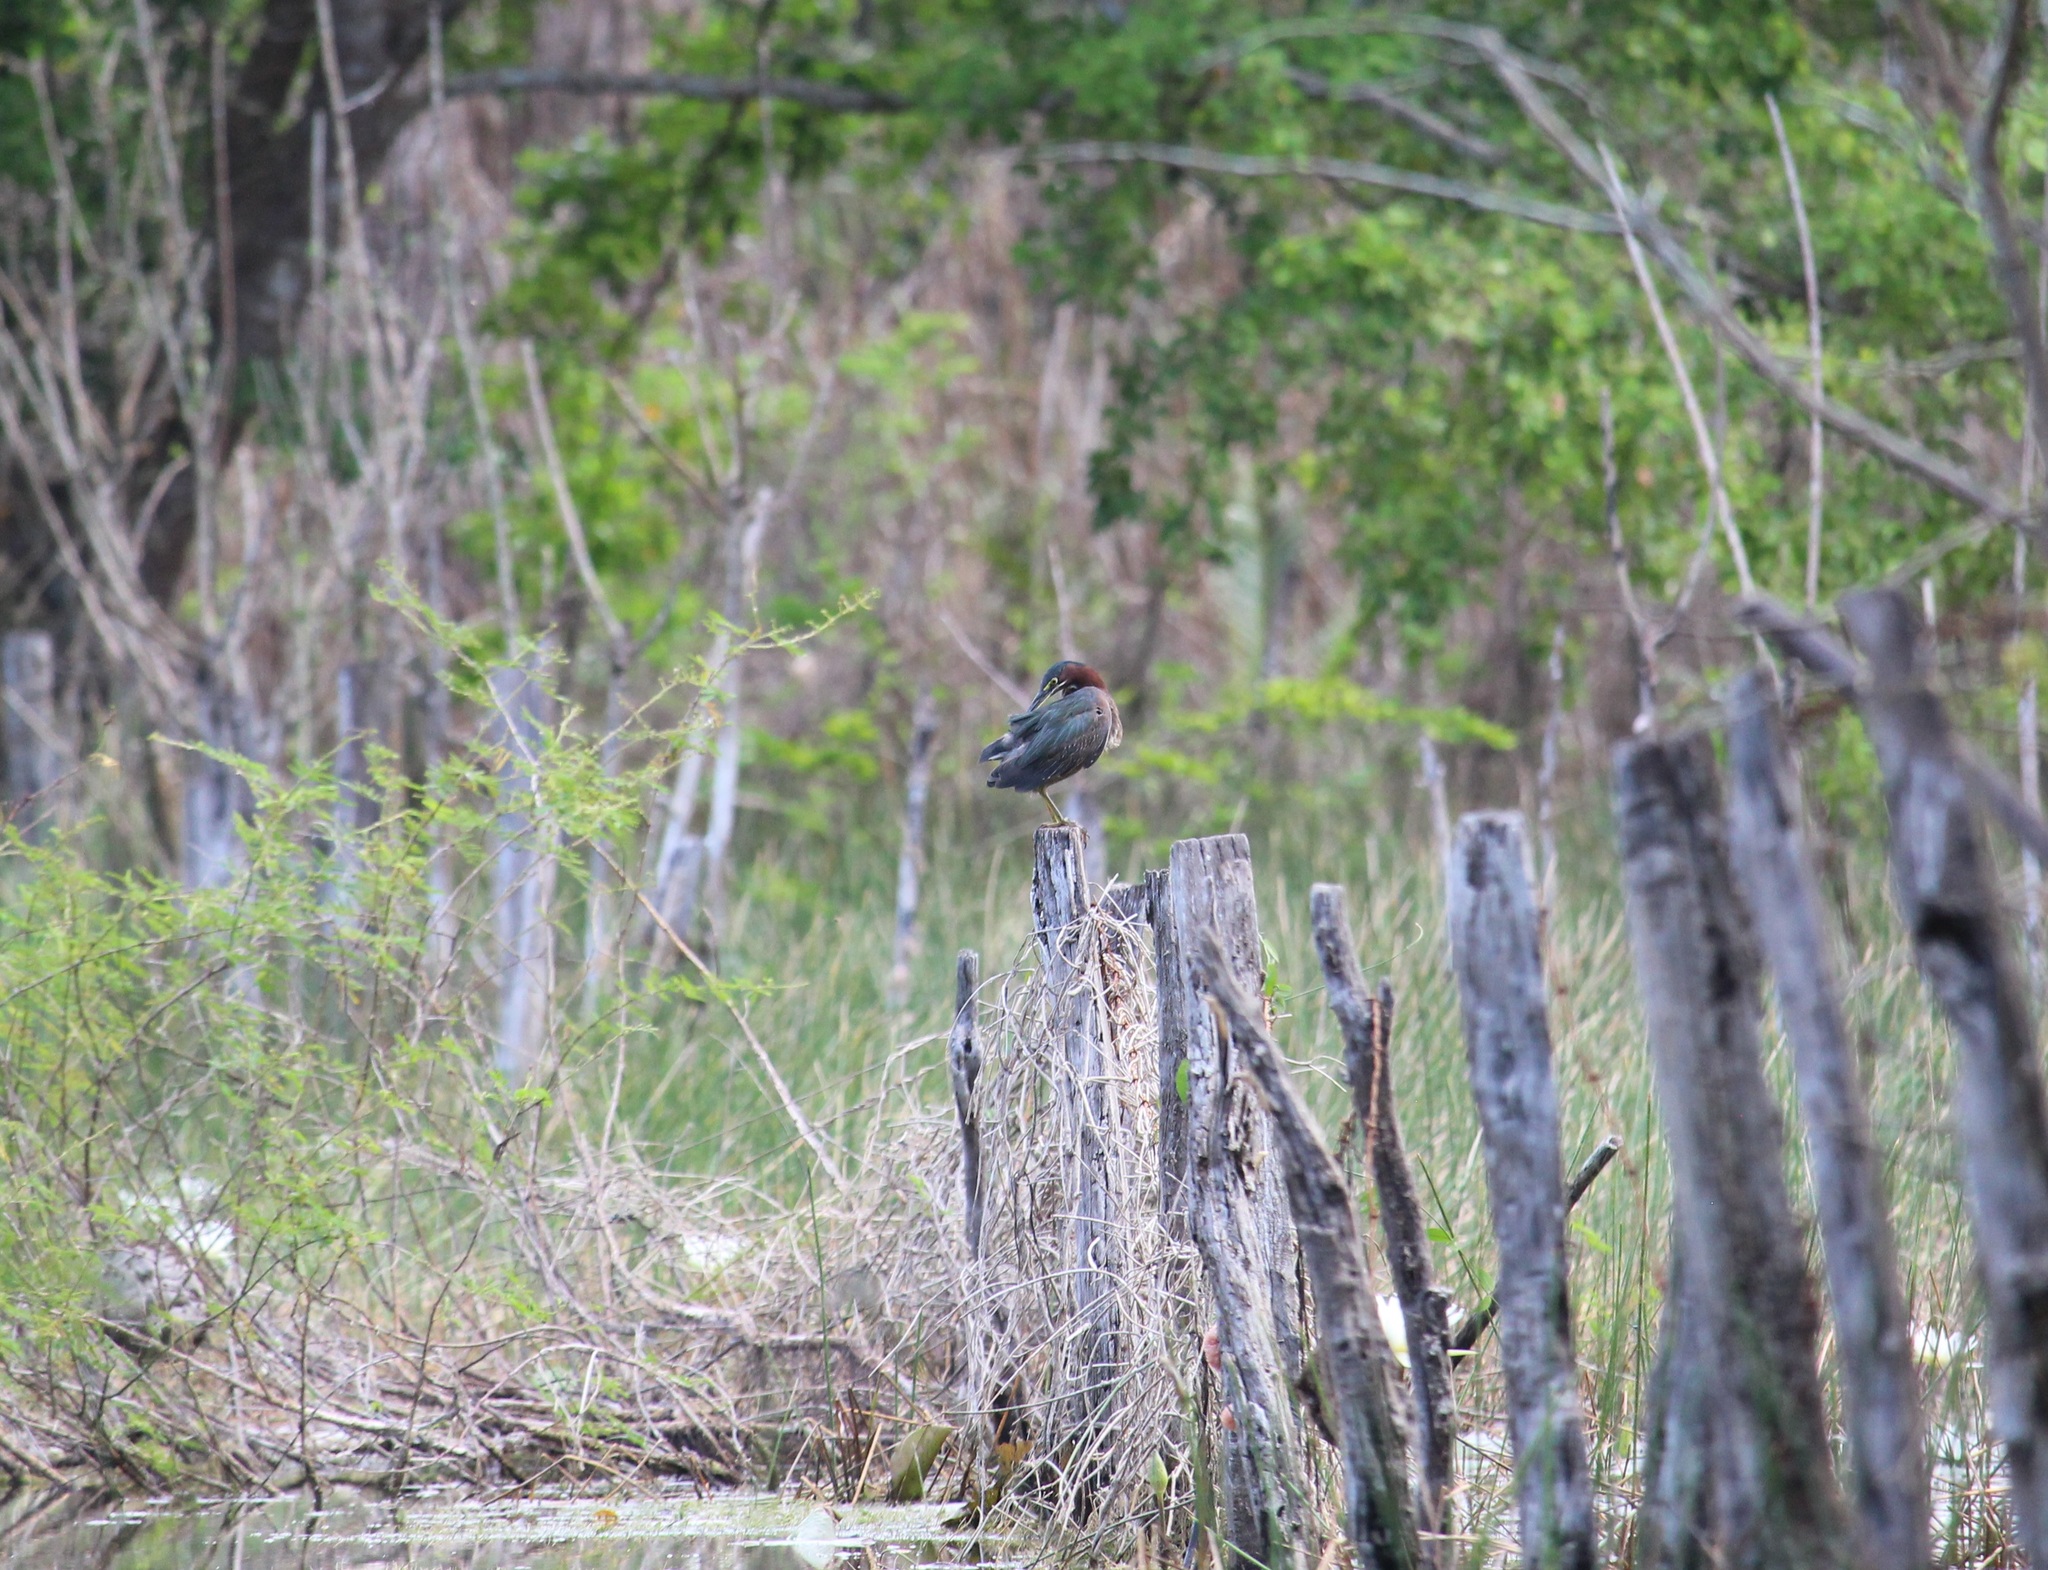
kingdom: Animalia
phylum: Chordata
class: Aves
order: Pelecaniformes
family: Ardeidae
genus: Butorides
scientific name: Butorides virescens
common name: Green heron
